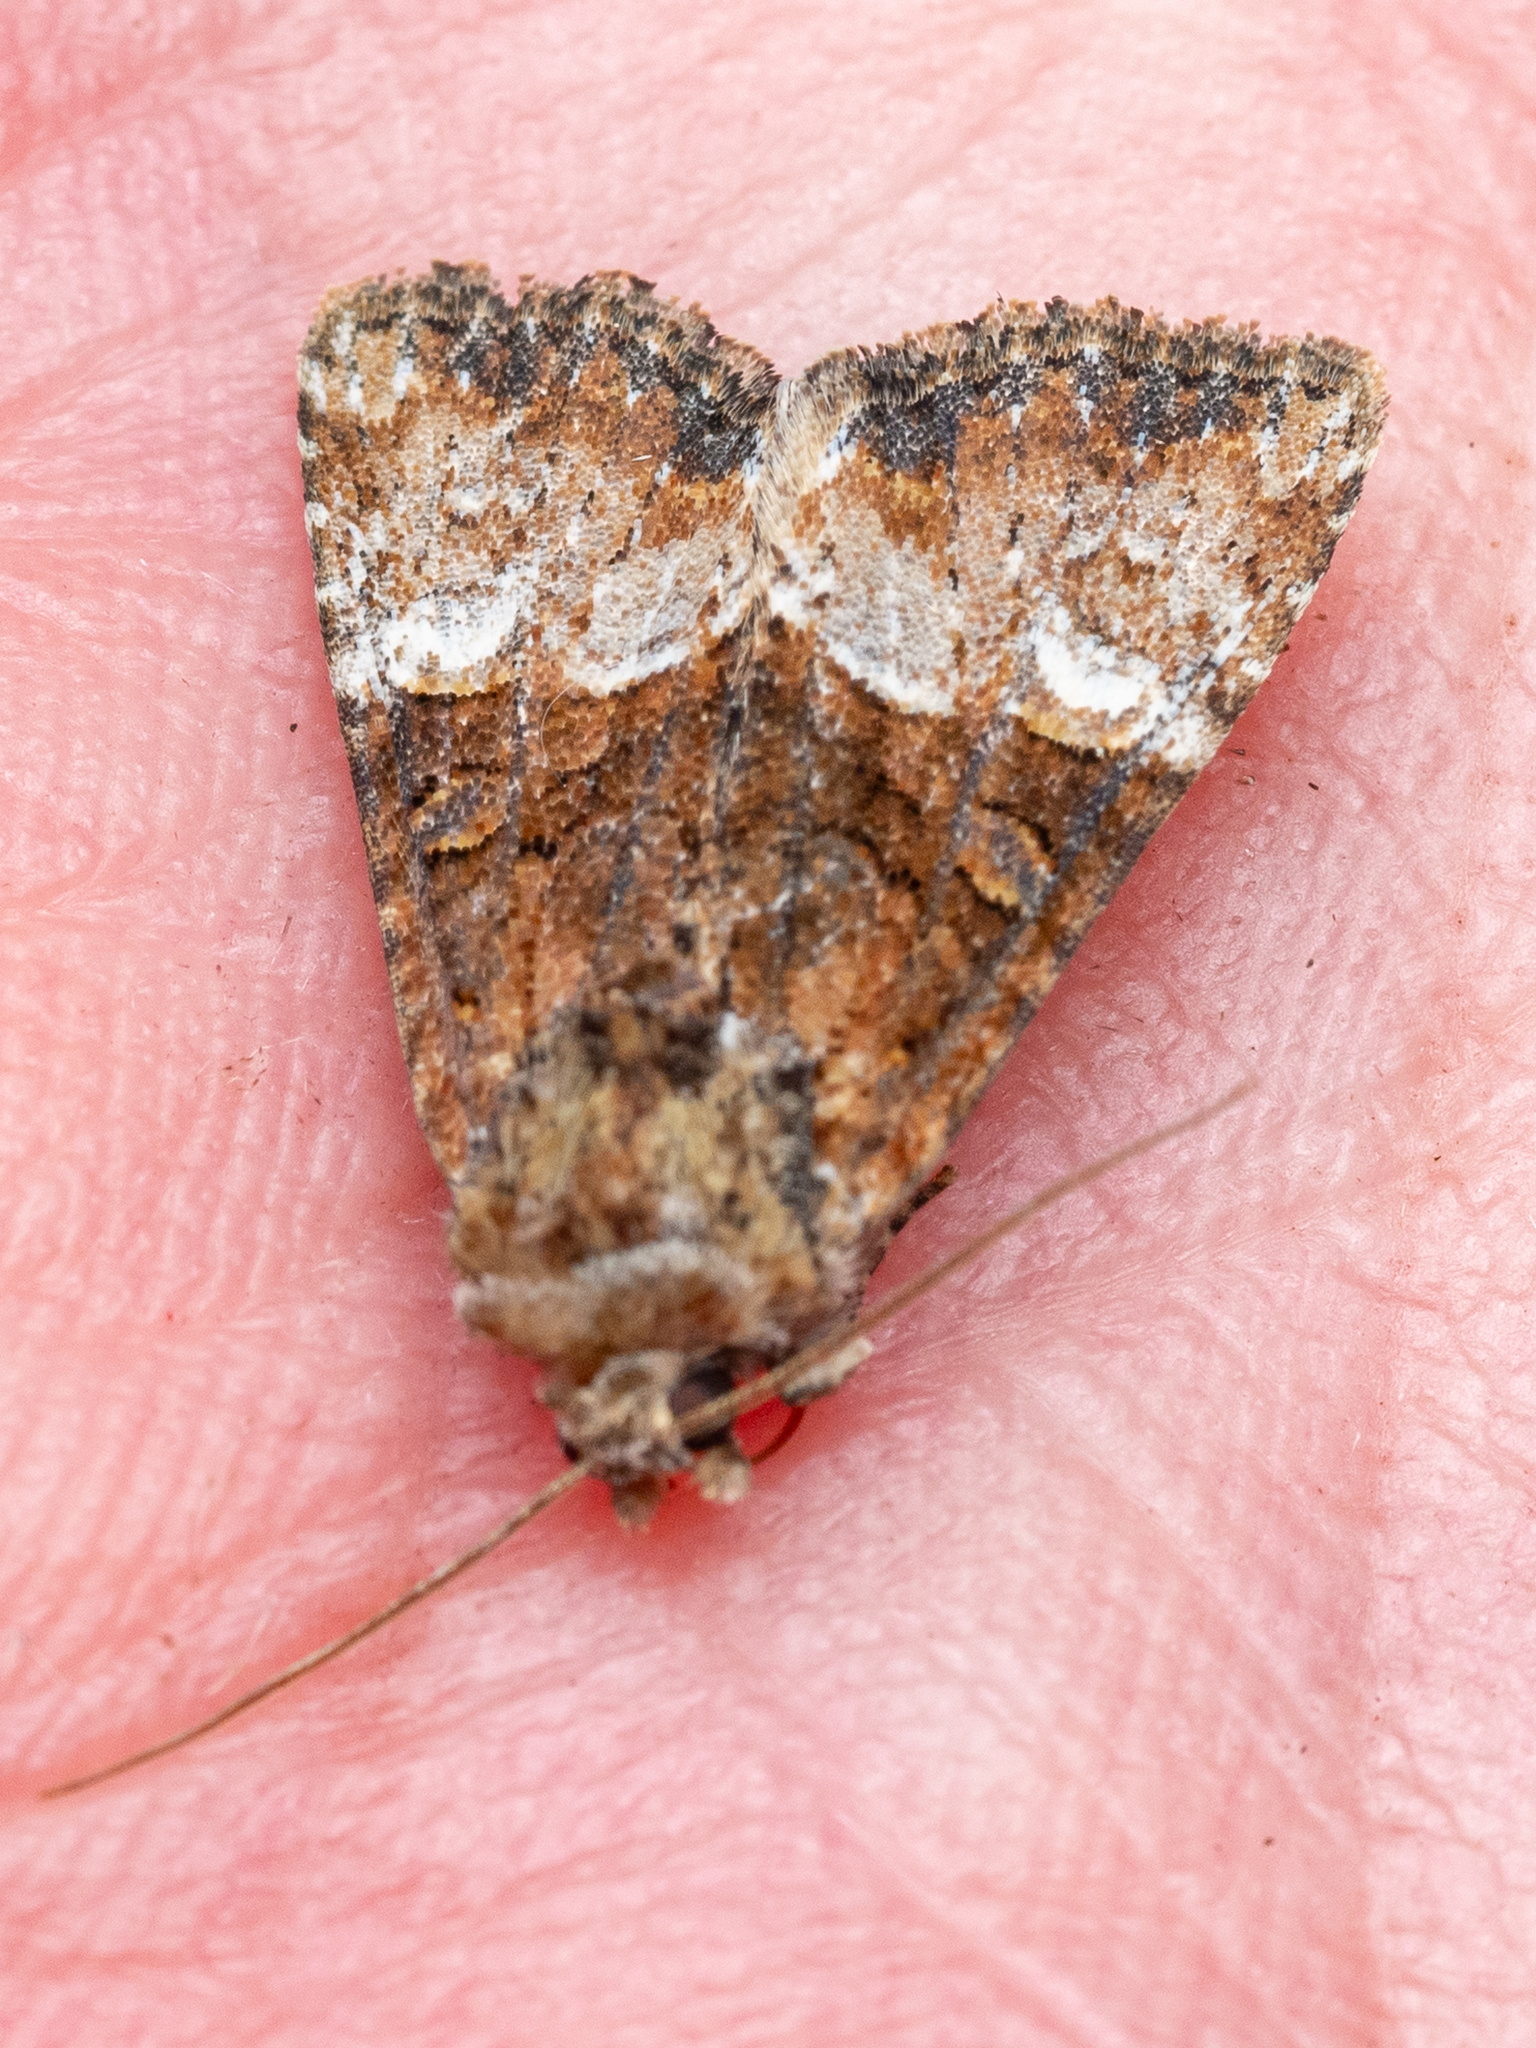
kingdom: Animalia
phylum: Arthropoda
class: Insecta
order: Lepidoptera
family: Noctuidae
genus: Mesoligia
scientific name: Mesoligia furuncula
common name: Cloaked minor
